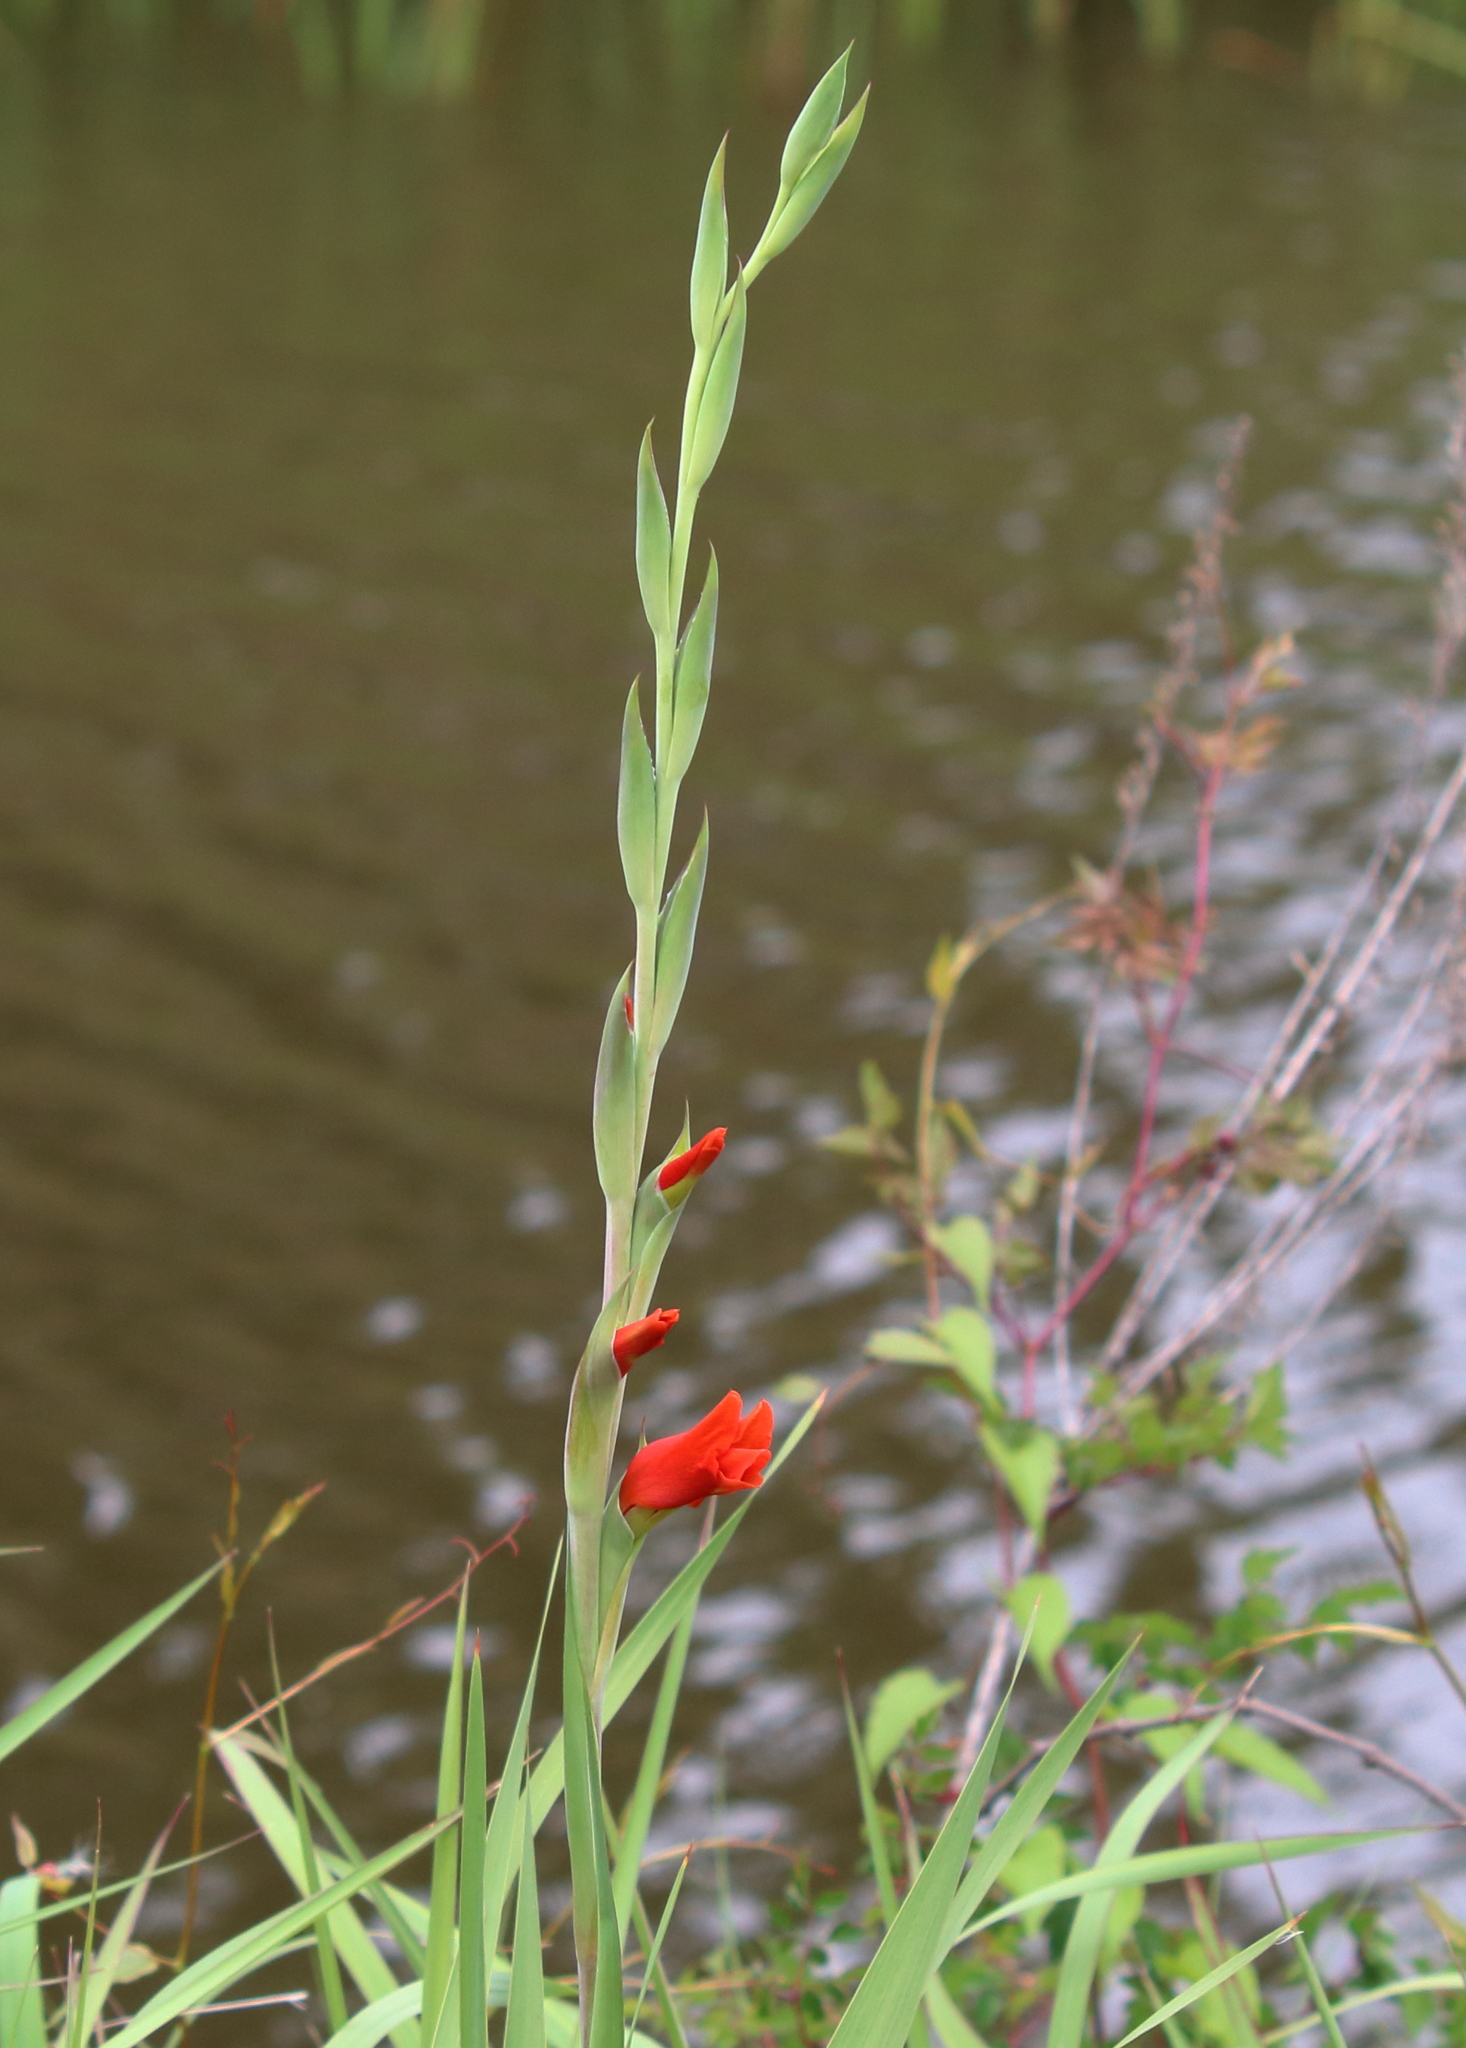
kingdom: Plantae
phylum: Tracheophyta
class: Liliopsida
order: Asparagales
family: Iridaceae
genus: Gladiolus
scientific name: Gladiolus hortulanus
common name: Large-flowered gladiolus
